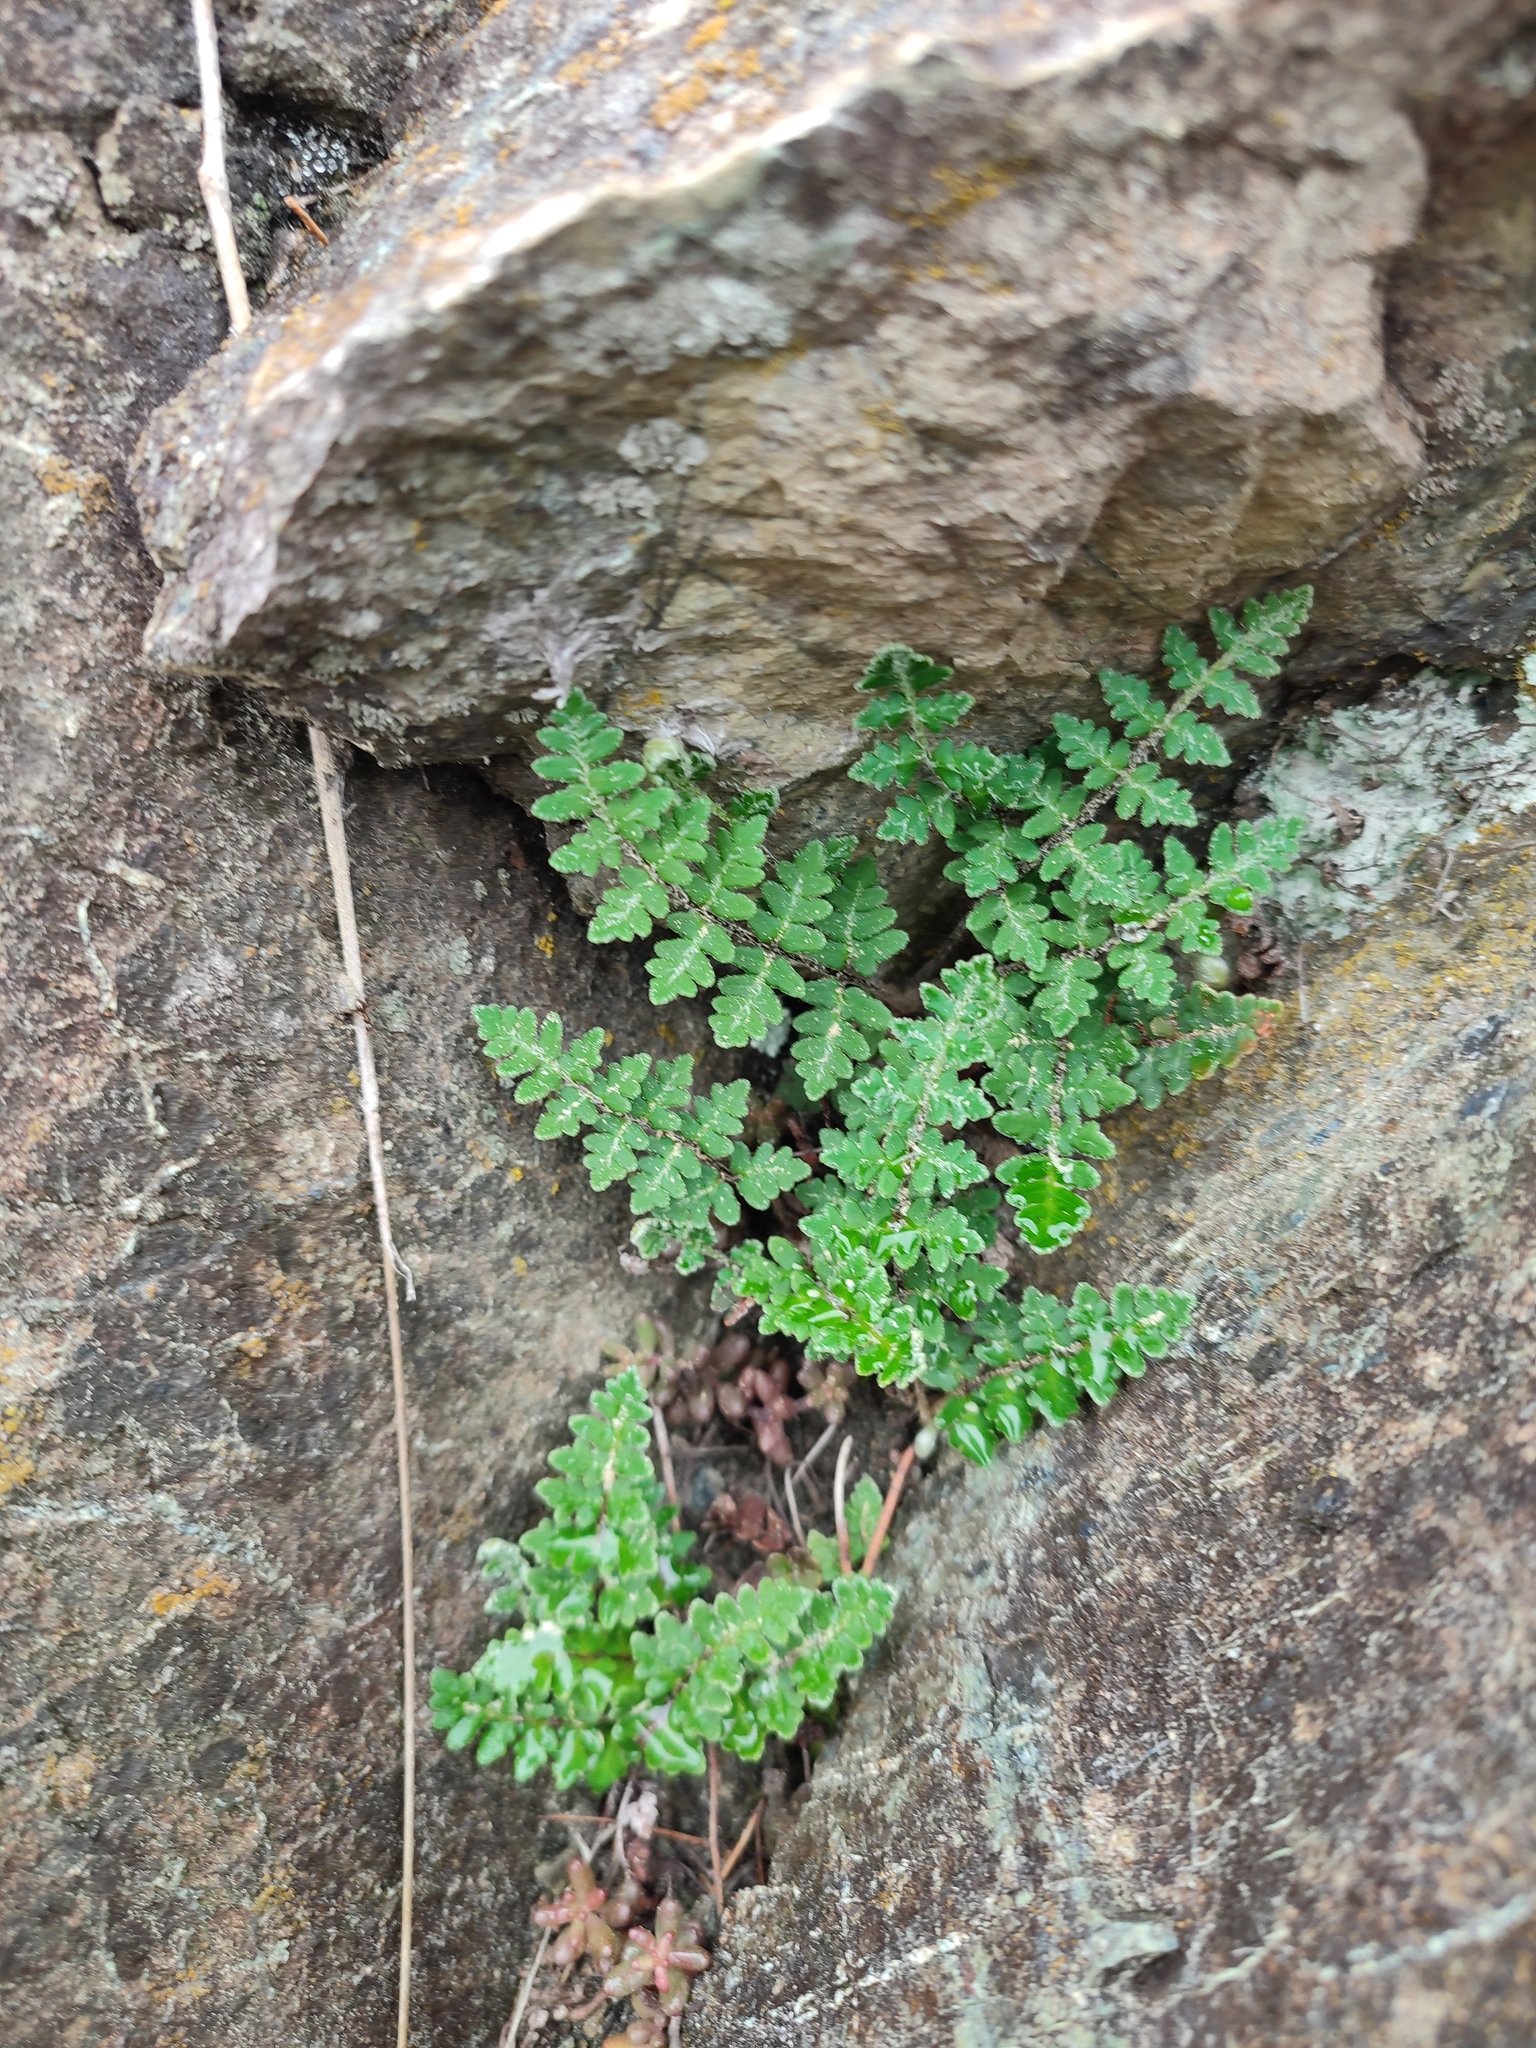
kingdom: Plantae
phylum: Tracheophyta
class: Polypodiopsida
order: Polypodiales
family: Pteridaceae
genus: Paragymnopteris
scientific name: Paragymnopteris marantae
